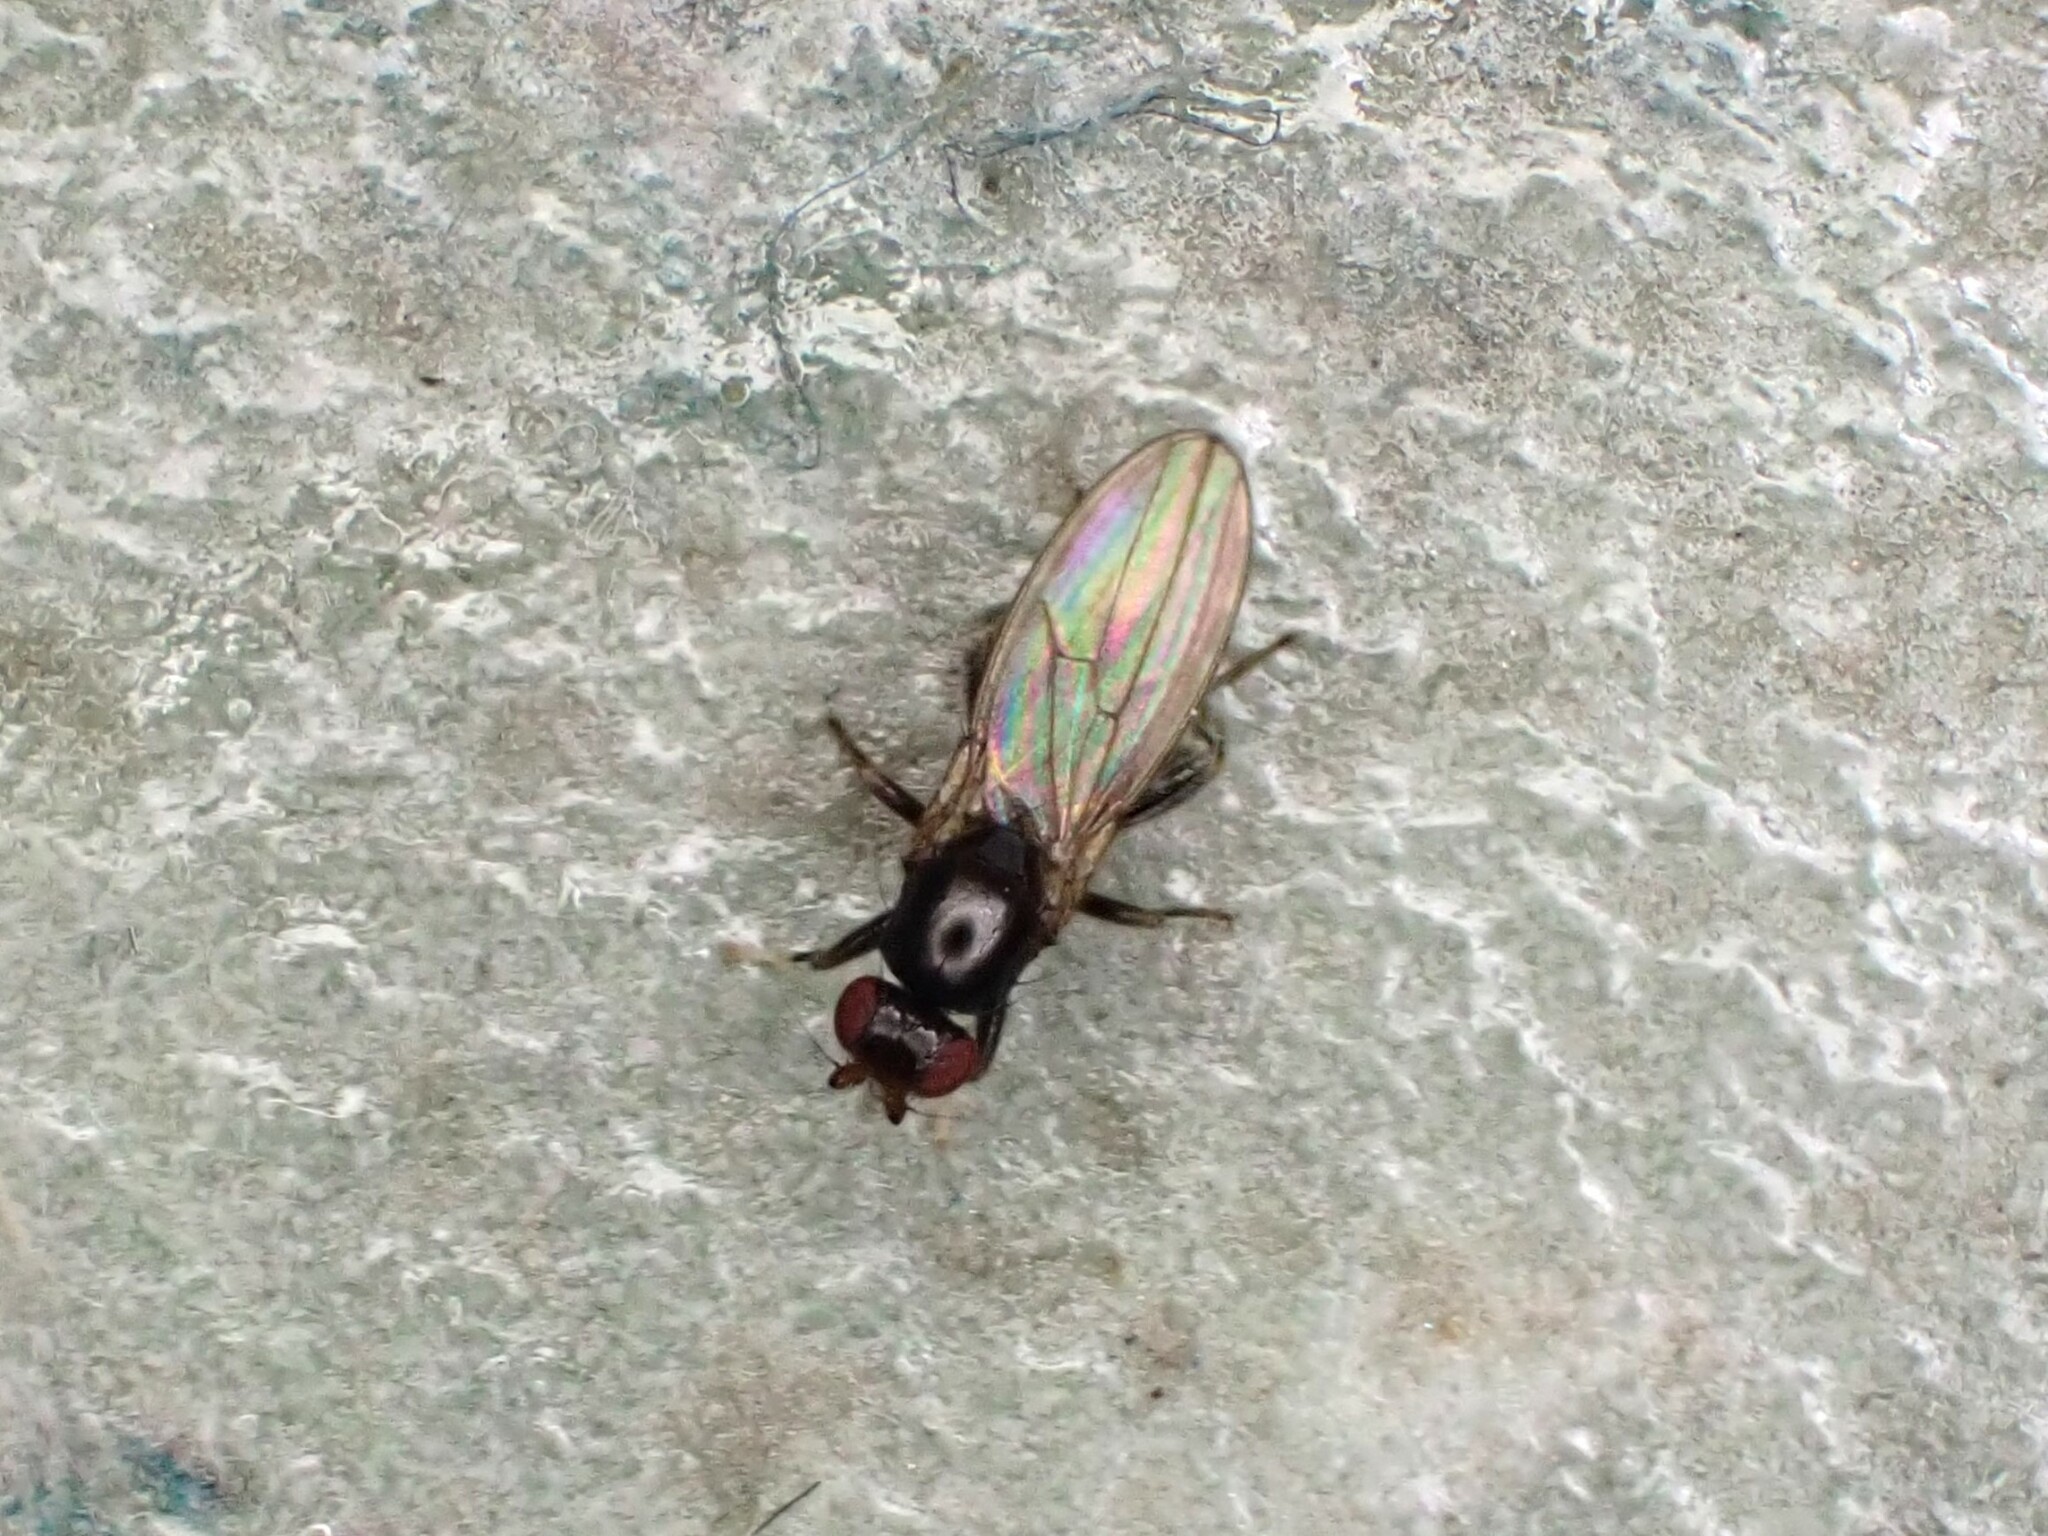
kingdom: Animalia
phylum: Arthropoda
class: Insecta
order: Diptera
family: Cypselosomatidae
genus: Pseudopomyza
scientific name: Pseudopomyza flavitarsis
